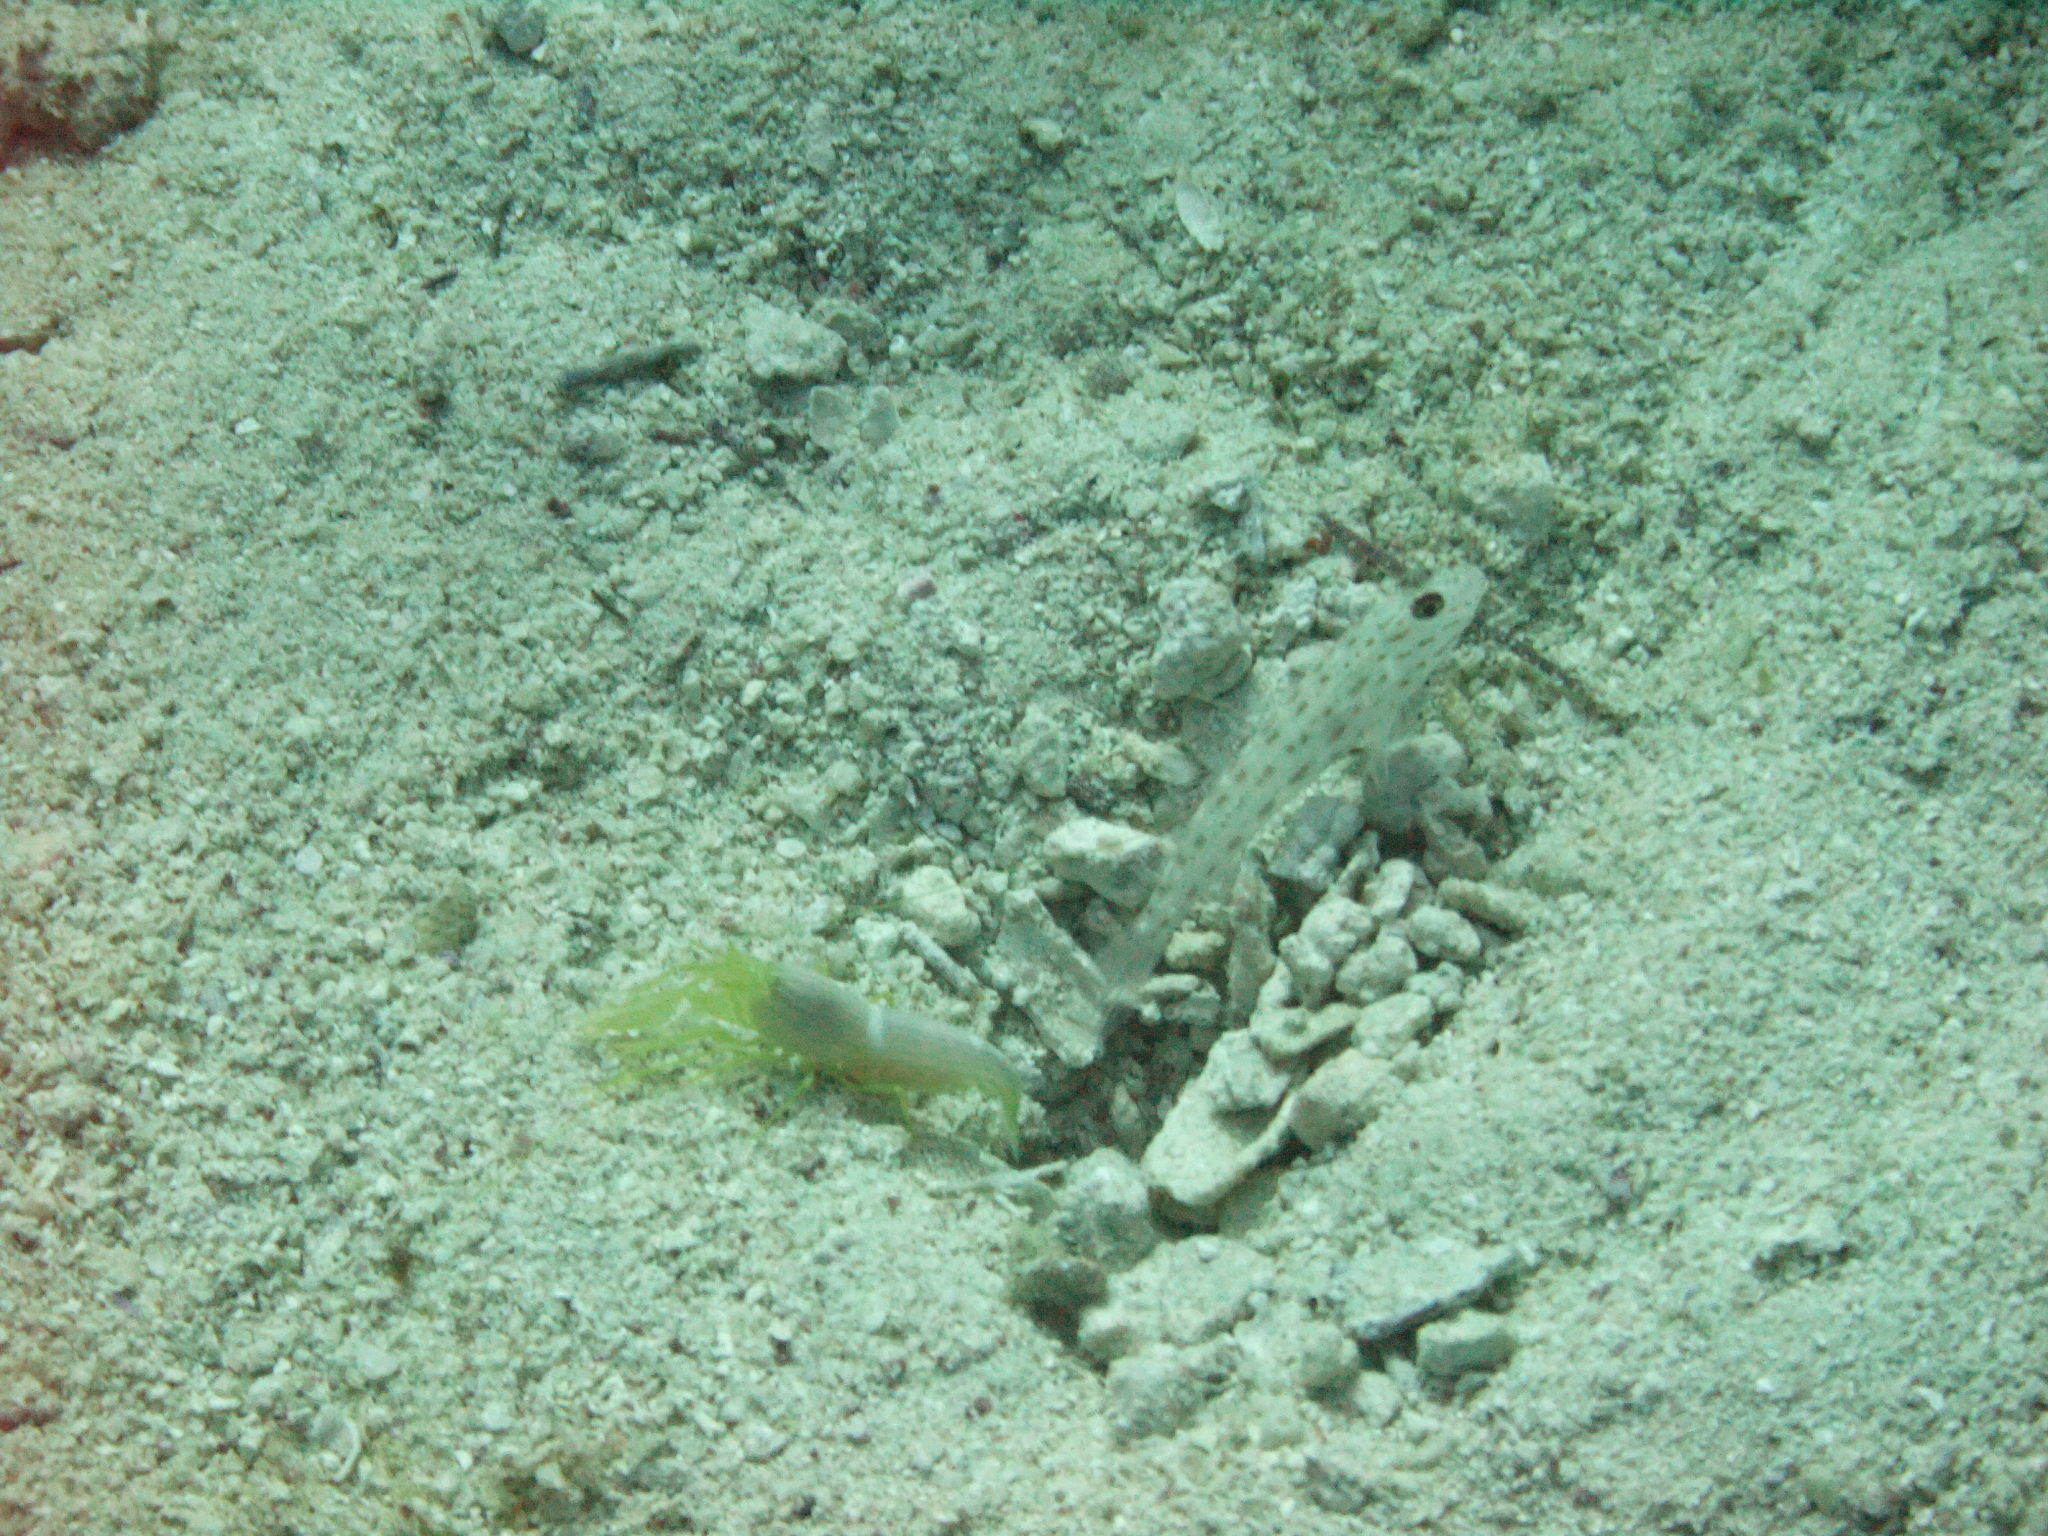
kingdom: Animalia
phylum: Chordata
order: Perciformes
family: Gobiidae
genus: Ctenogobiops
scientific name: Ctenogobiops crocineus
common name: Silverspot shrimpgoby
